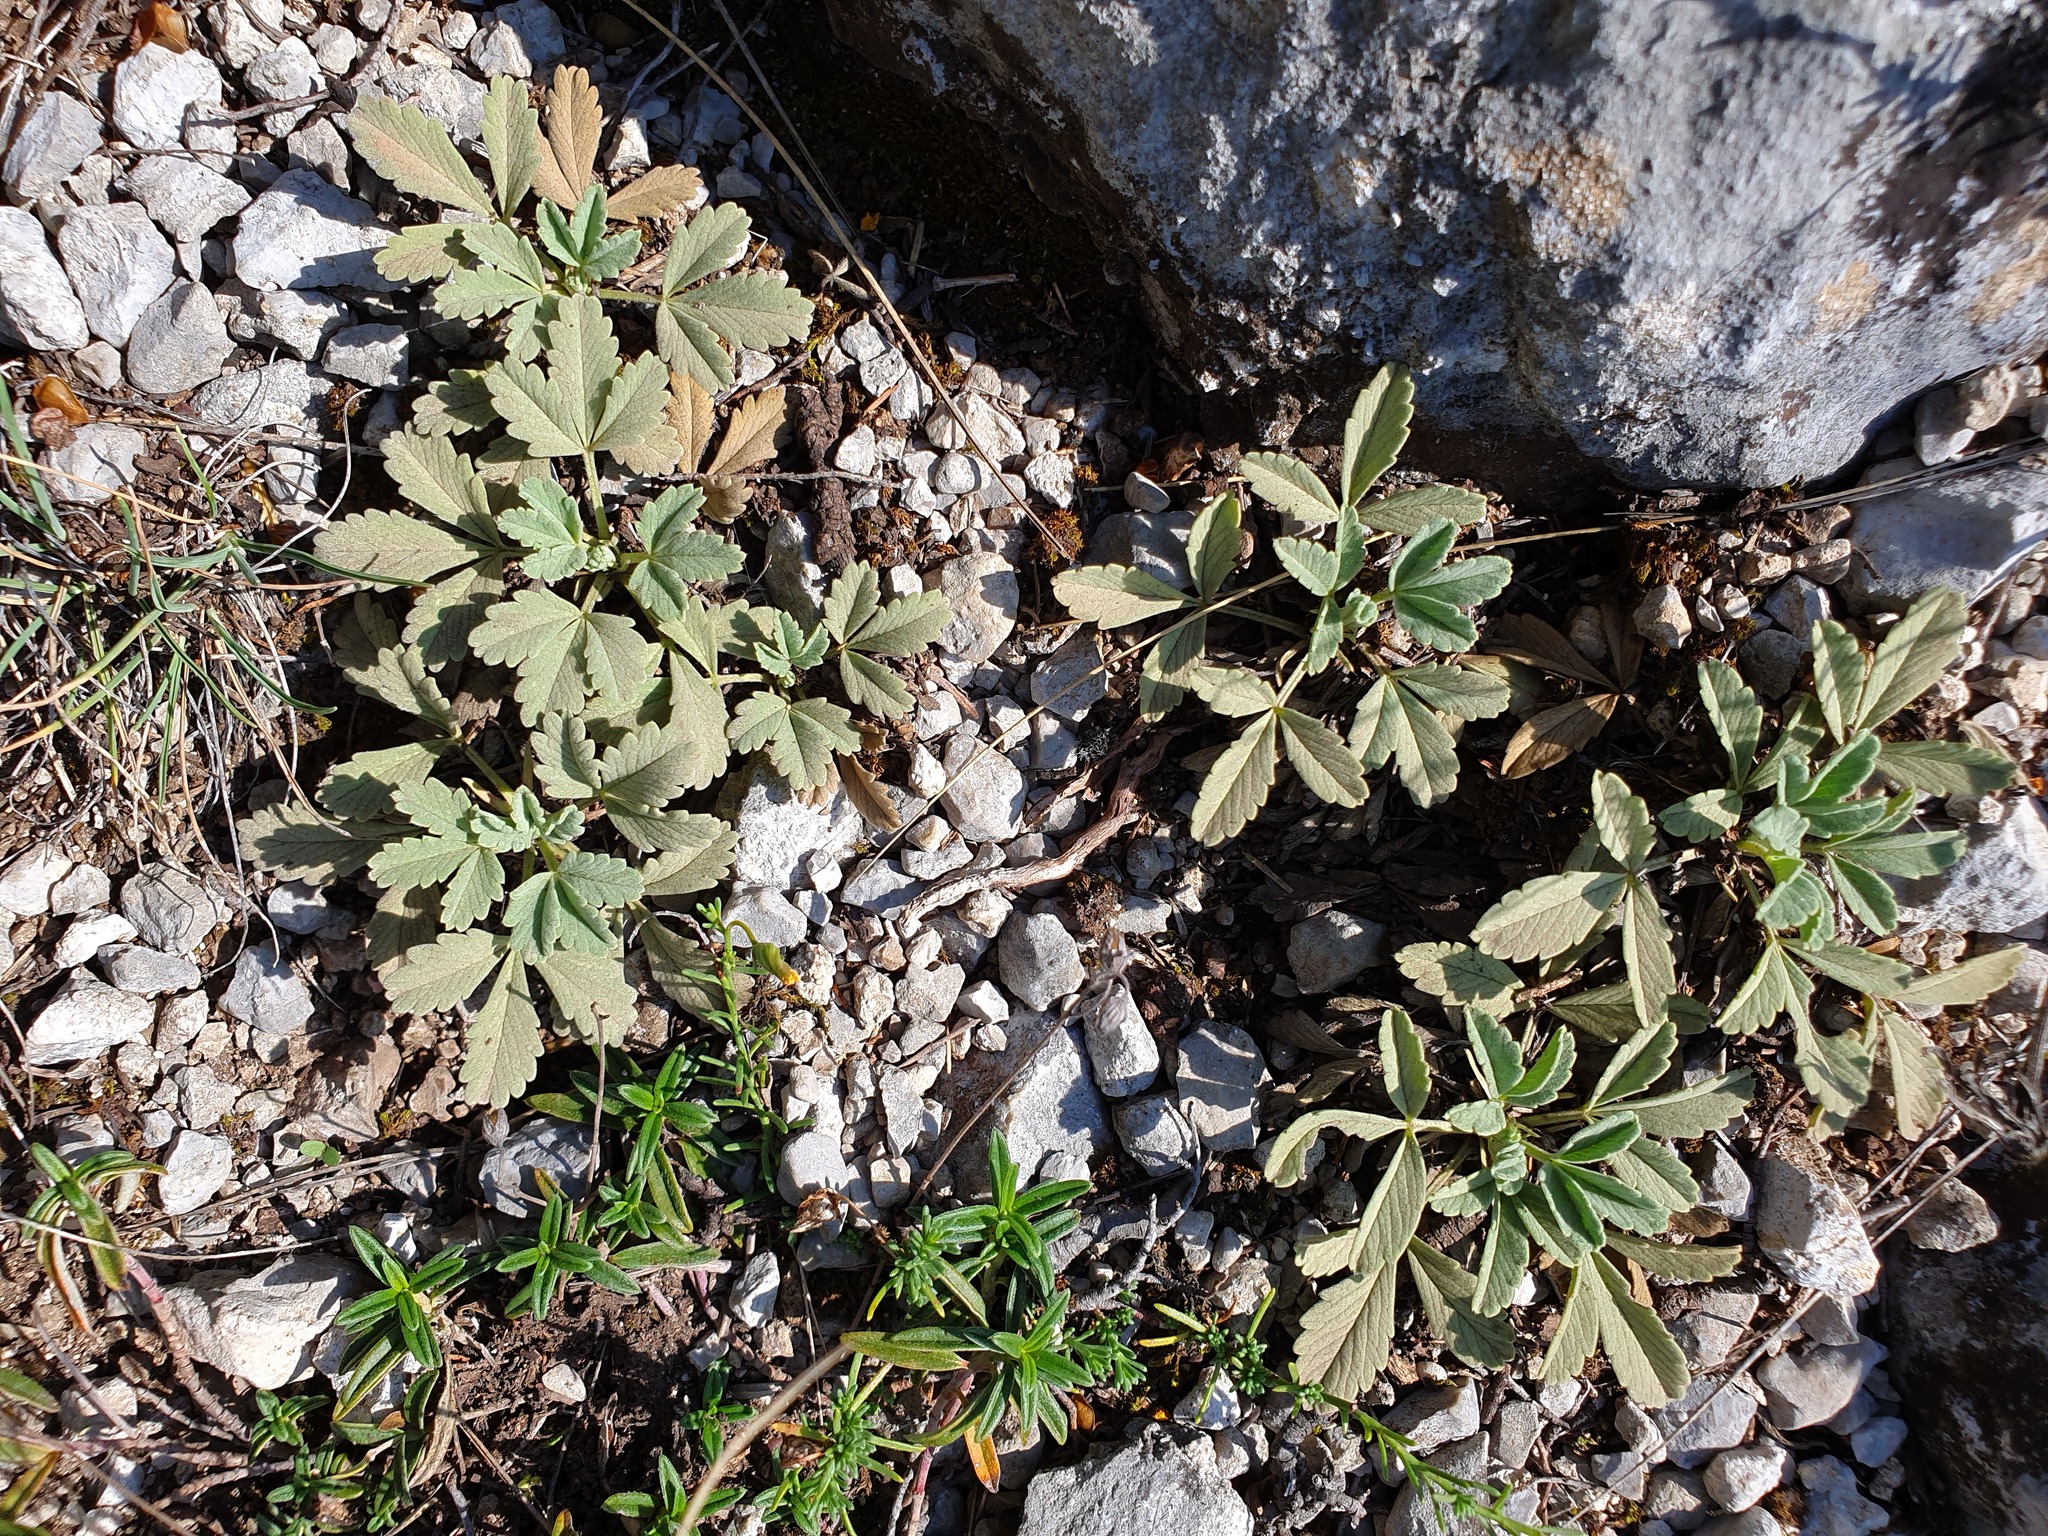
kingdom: Plantae
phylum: Tracheophyta
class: Magnoliopsida
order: Rosales
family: Rosaceae
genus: Potentilla
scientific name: Potentilla cinerea
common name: Ashy cinquefoil
